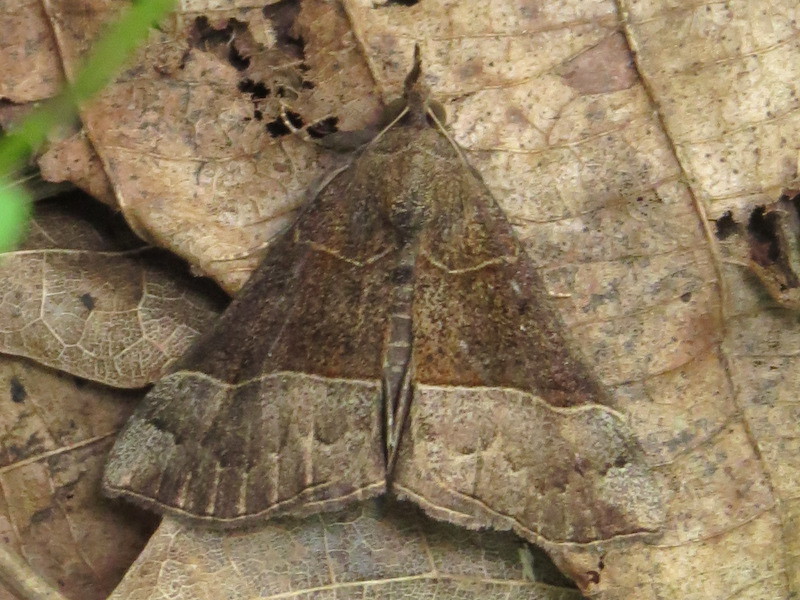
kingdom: Animalia
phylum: Arthropoda
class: Insecta
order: Lepidoptera
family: Erebidae
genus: Hypena
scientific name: Hypena deceptalis
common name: Deceptive snout
